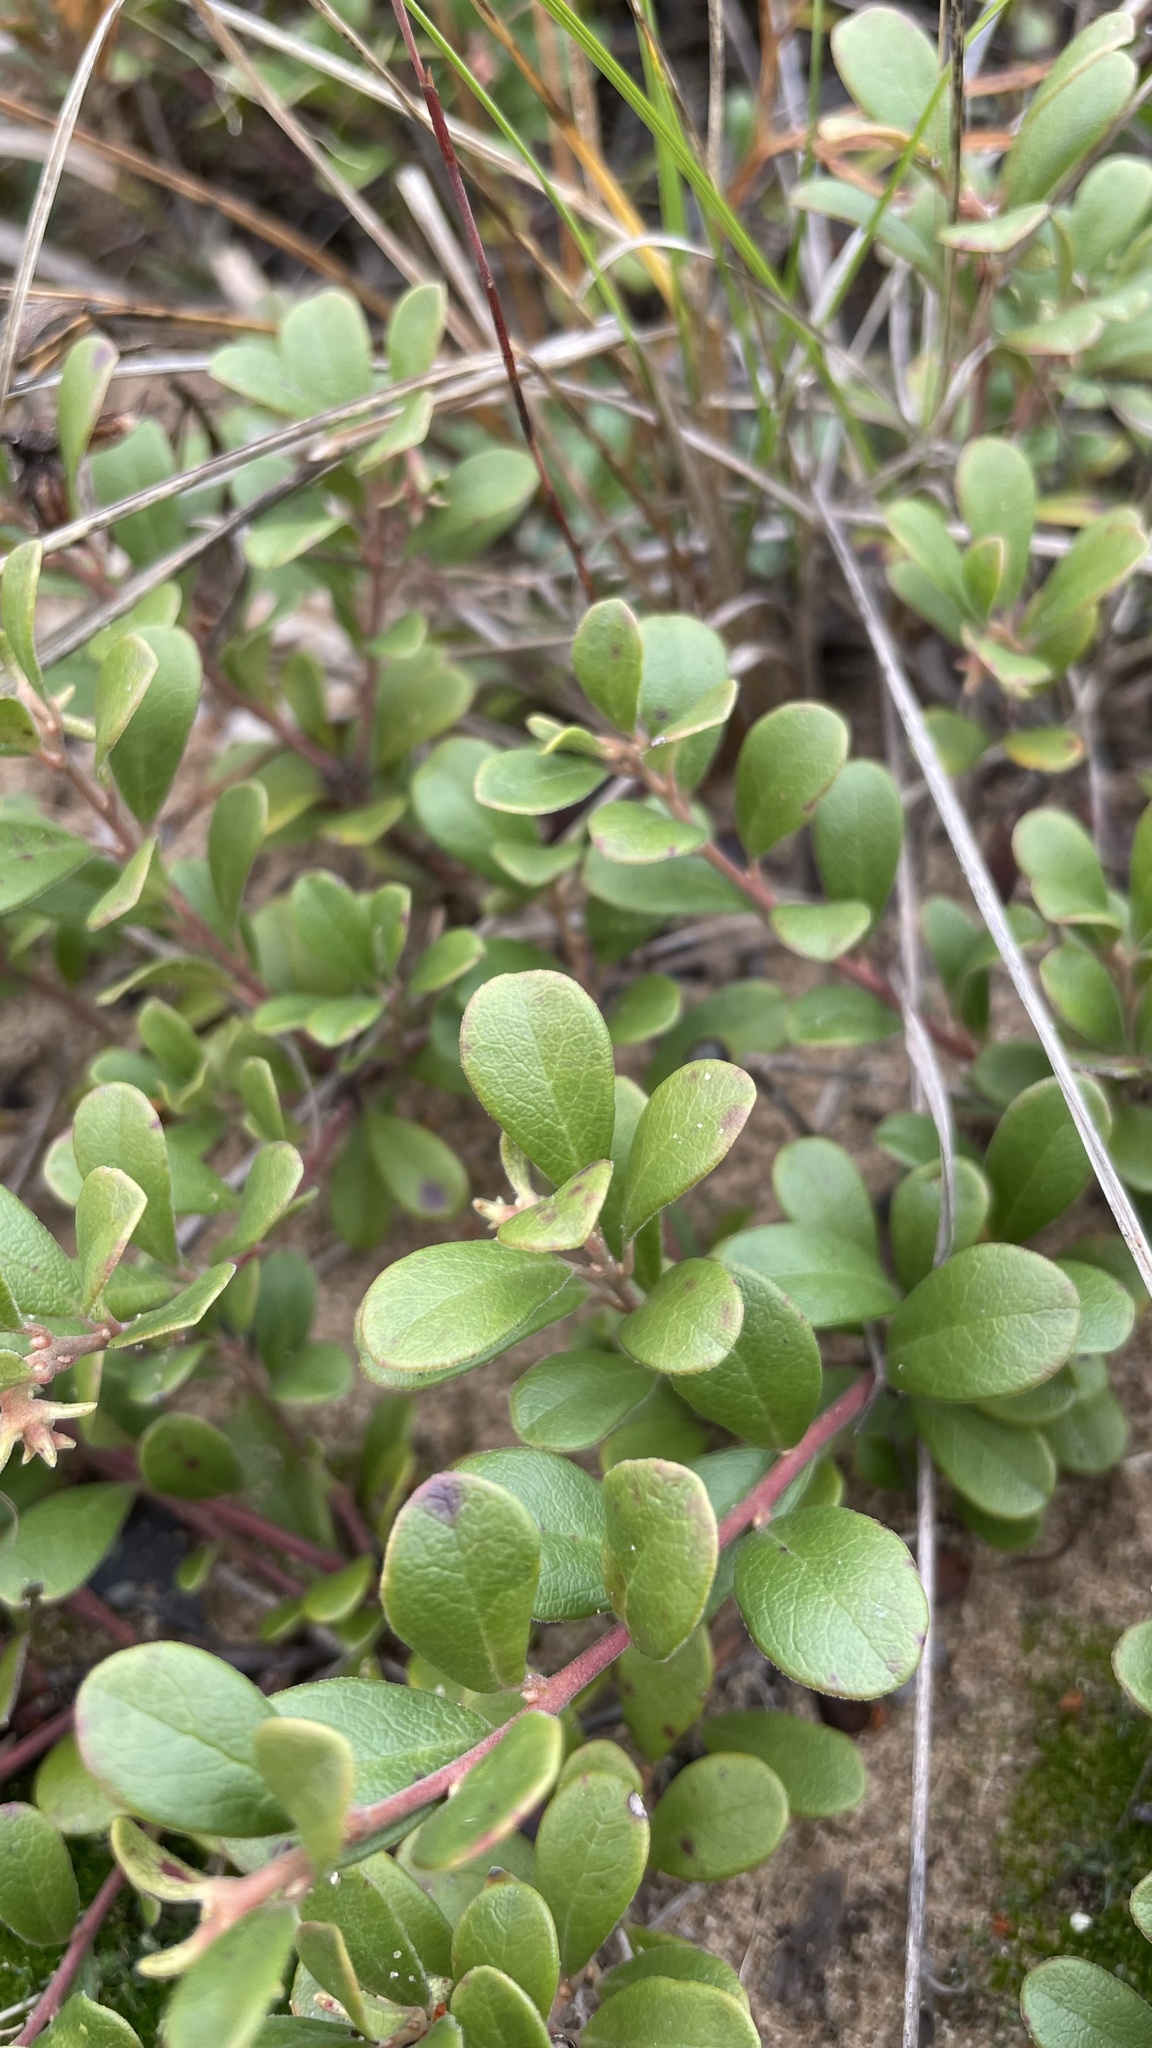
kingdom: Plantae
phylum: Tracheophyta
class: Magnoliopsida
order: Ericales
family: Ericaceae
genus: Arctostaphylos
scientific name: Arctostaphylos uva-ursi
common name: Bearberry
